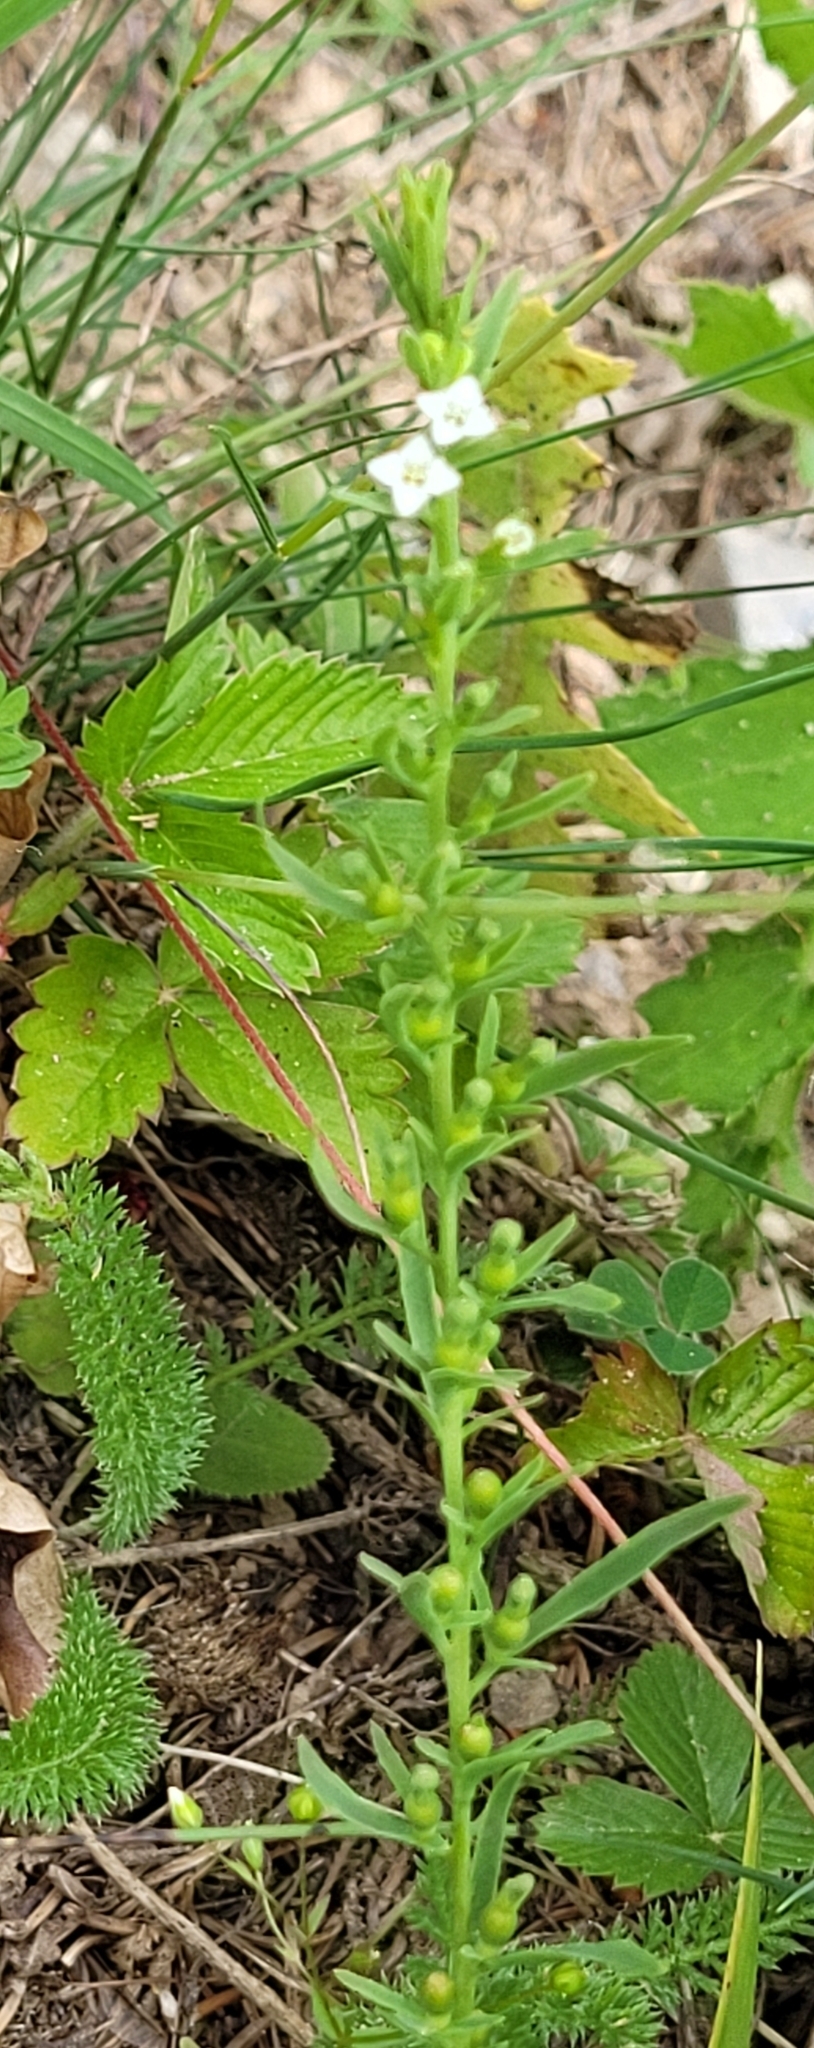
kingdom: Plantae
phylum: Tracheophyta
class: Magnoliopsida
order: Santalales
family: Thesiaceae
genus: Thesium
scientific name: Thesium alpinum
